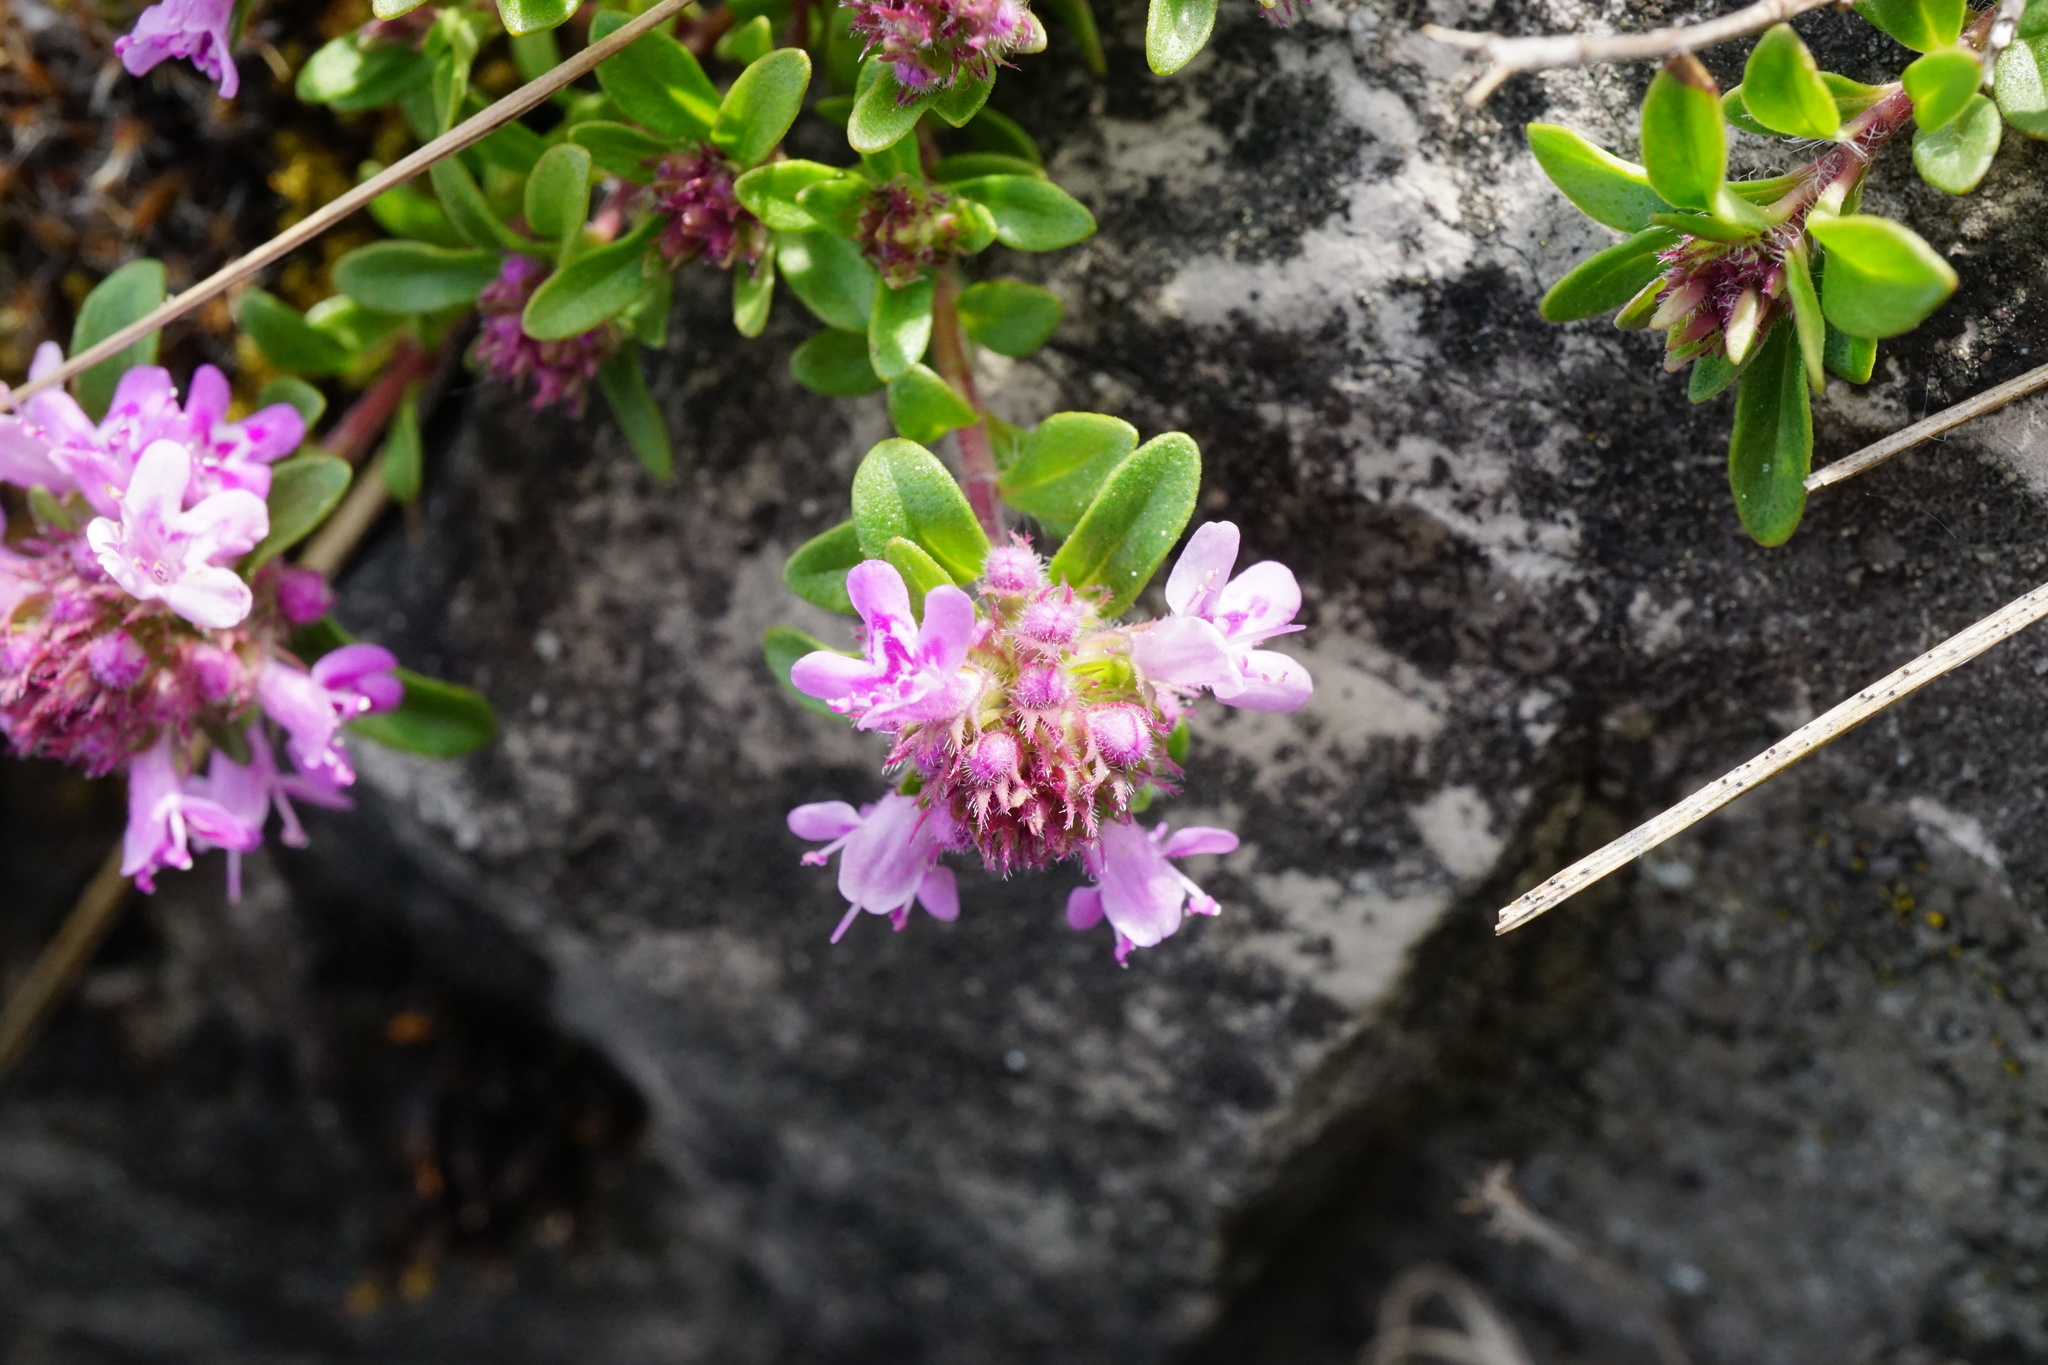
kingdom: Plantae
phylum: Tracheophyta
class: Magnoliopsida
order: Lamiales
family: Lamiaceae
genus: Thymus
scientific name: Thymus odoratissimus
